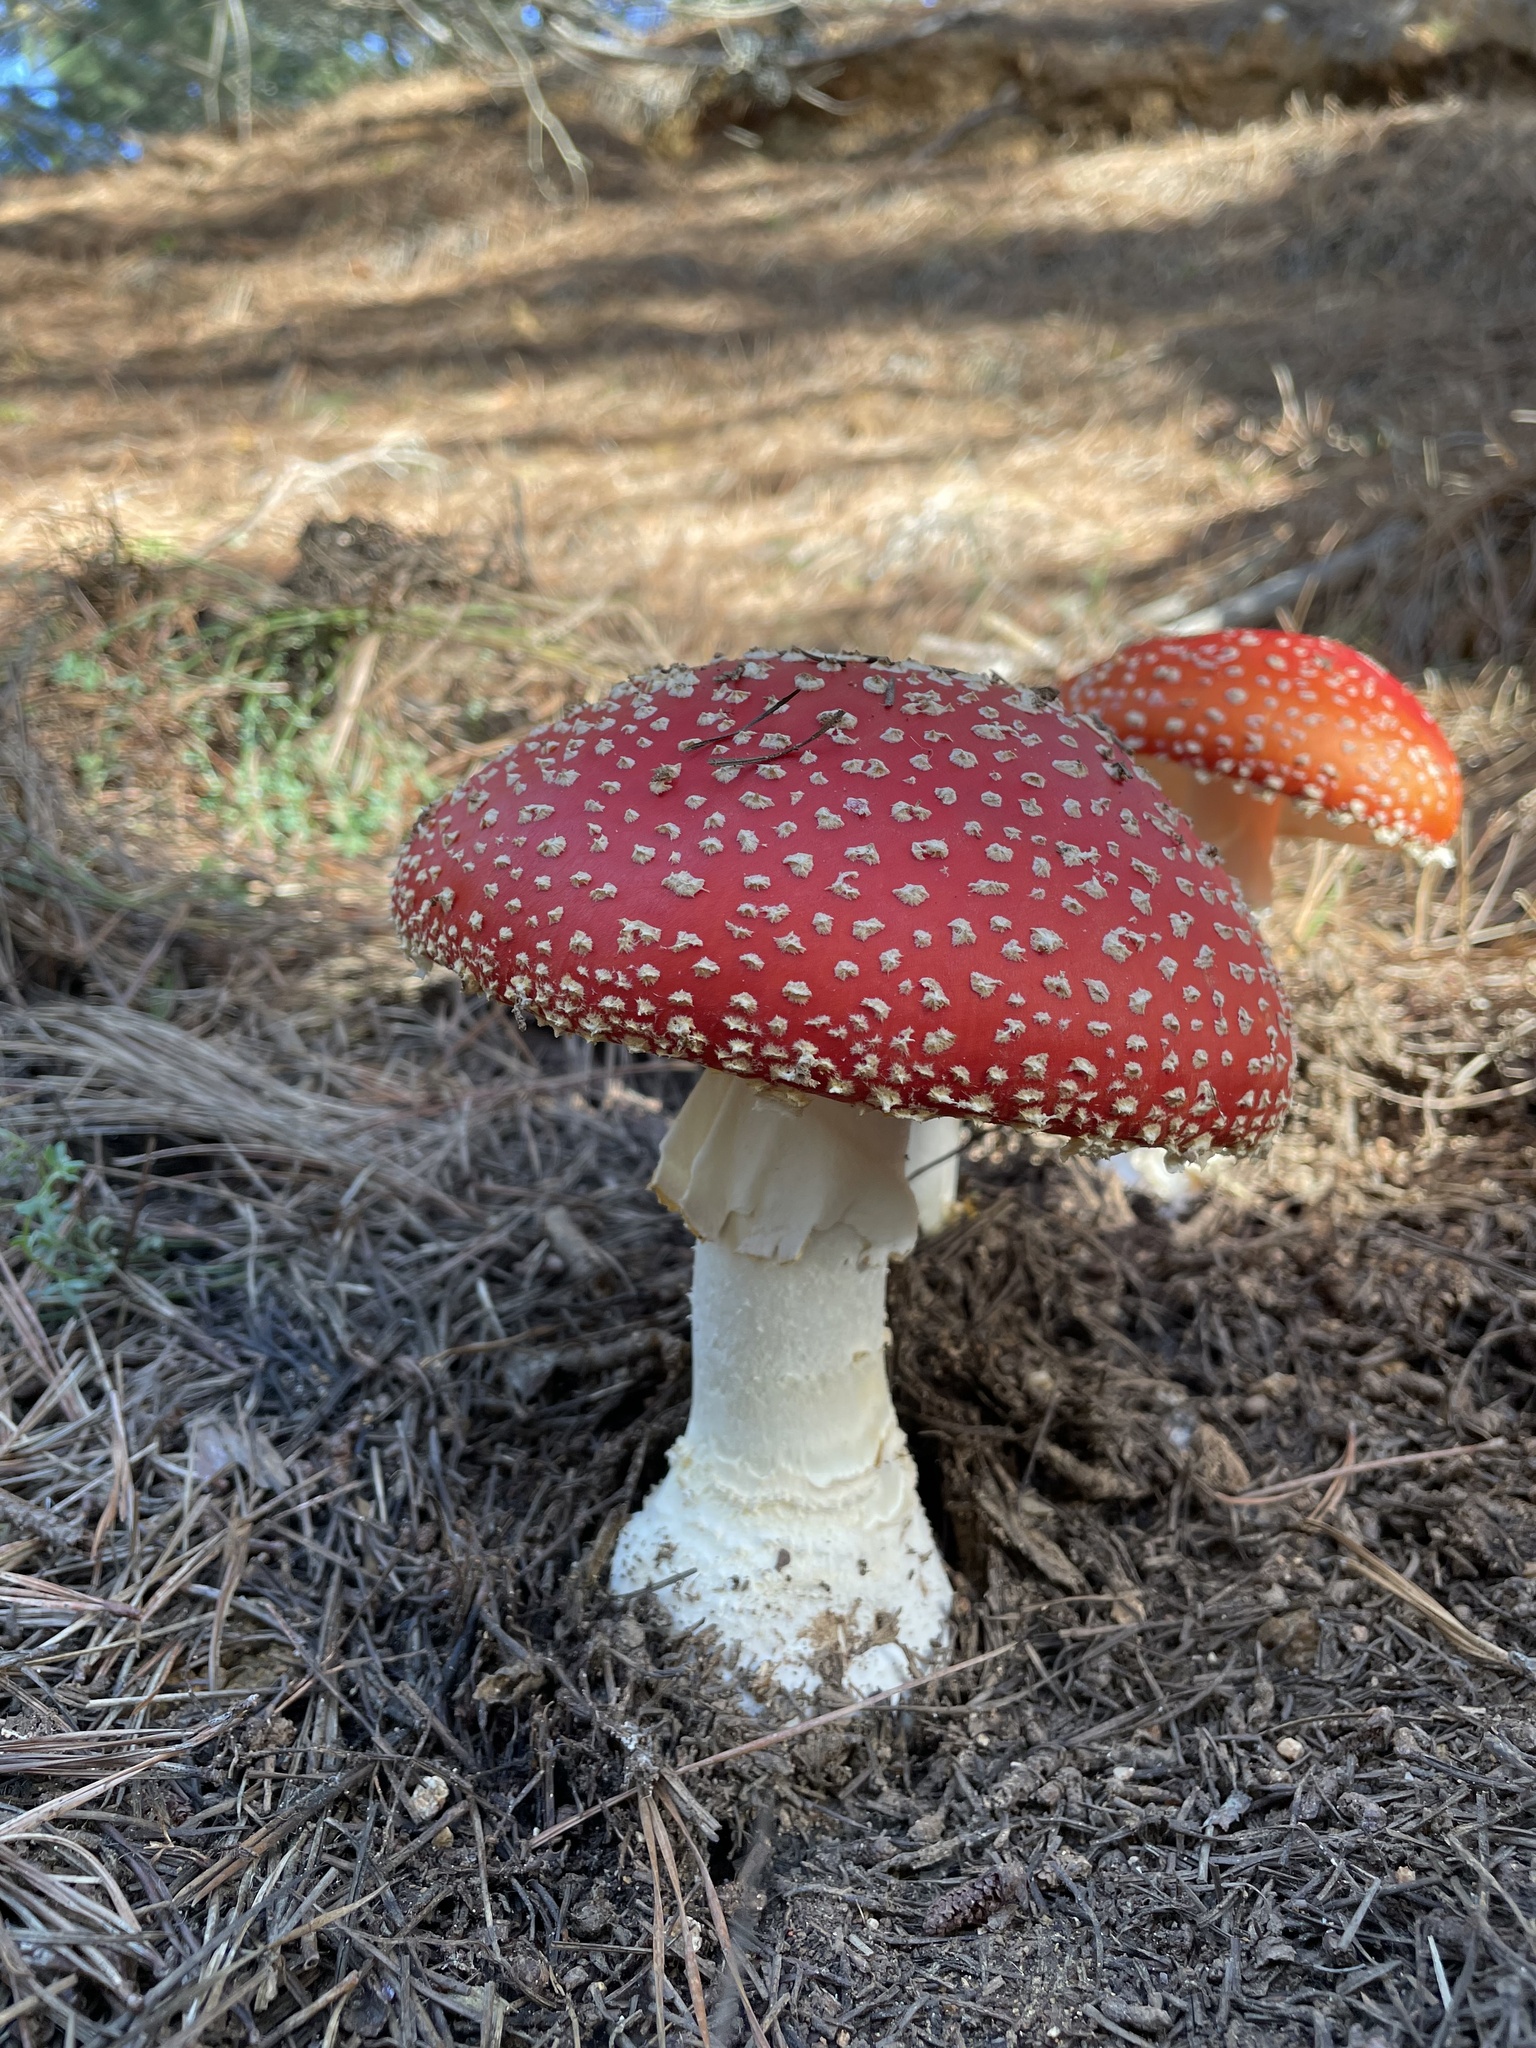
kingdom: Fungi
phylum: Basidiomycota
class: Agaricomycetes
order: Agaricales
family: Amanitaceae
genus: Amanita
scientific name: Amanita muscaria
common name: Fly agaric
